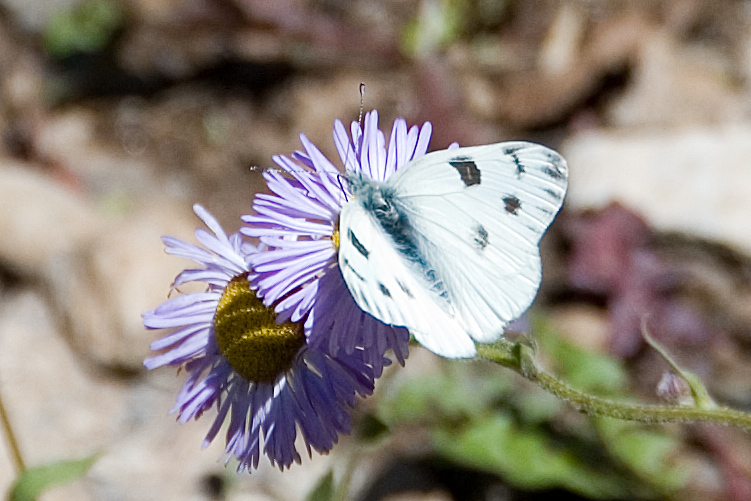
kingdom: Animalia
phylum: Arthropoda
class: Insecta
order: Lepidoptera
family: Pieridae
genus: Pontia
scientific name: Pontia protodice
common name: Checkered white
